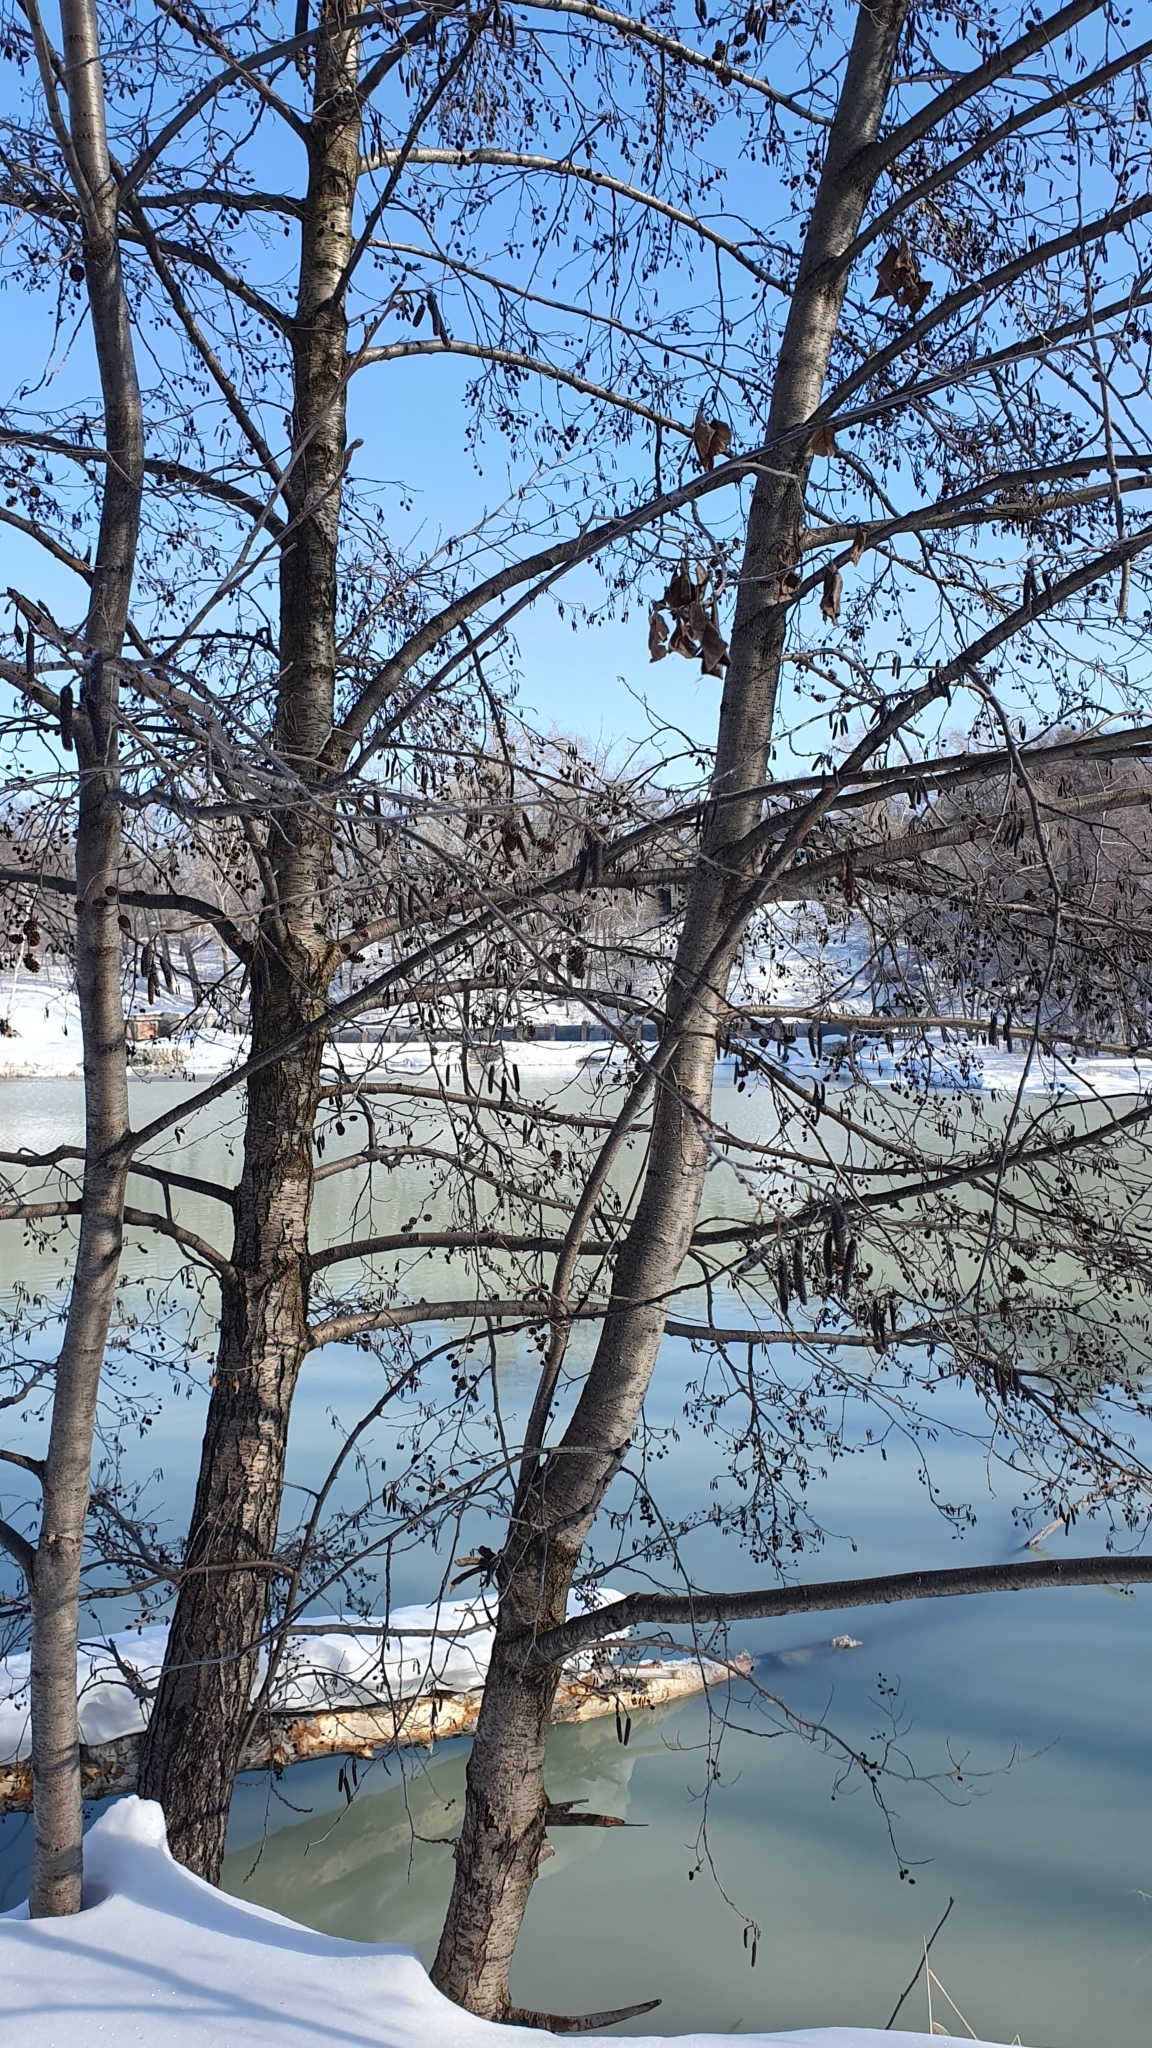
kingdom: Plantae
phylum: Tracheophyta
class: Magnoliopsida
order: Fagales
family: Betulaceae
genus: Alnus
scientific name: Alnus glutinosa
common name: Black alder
